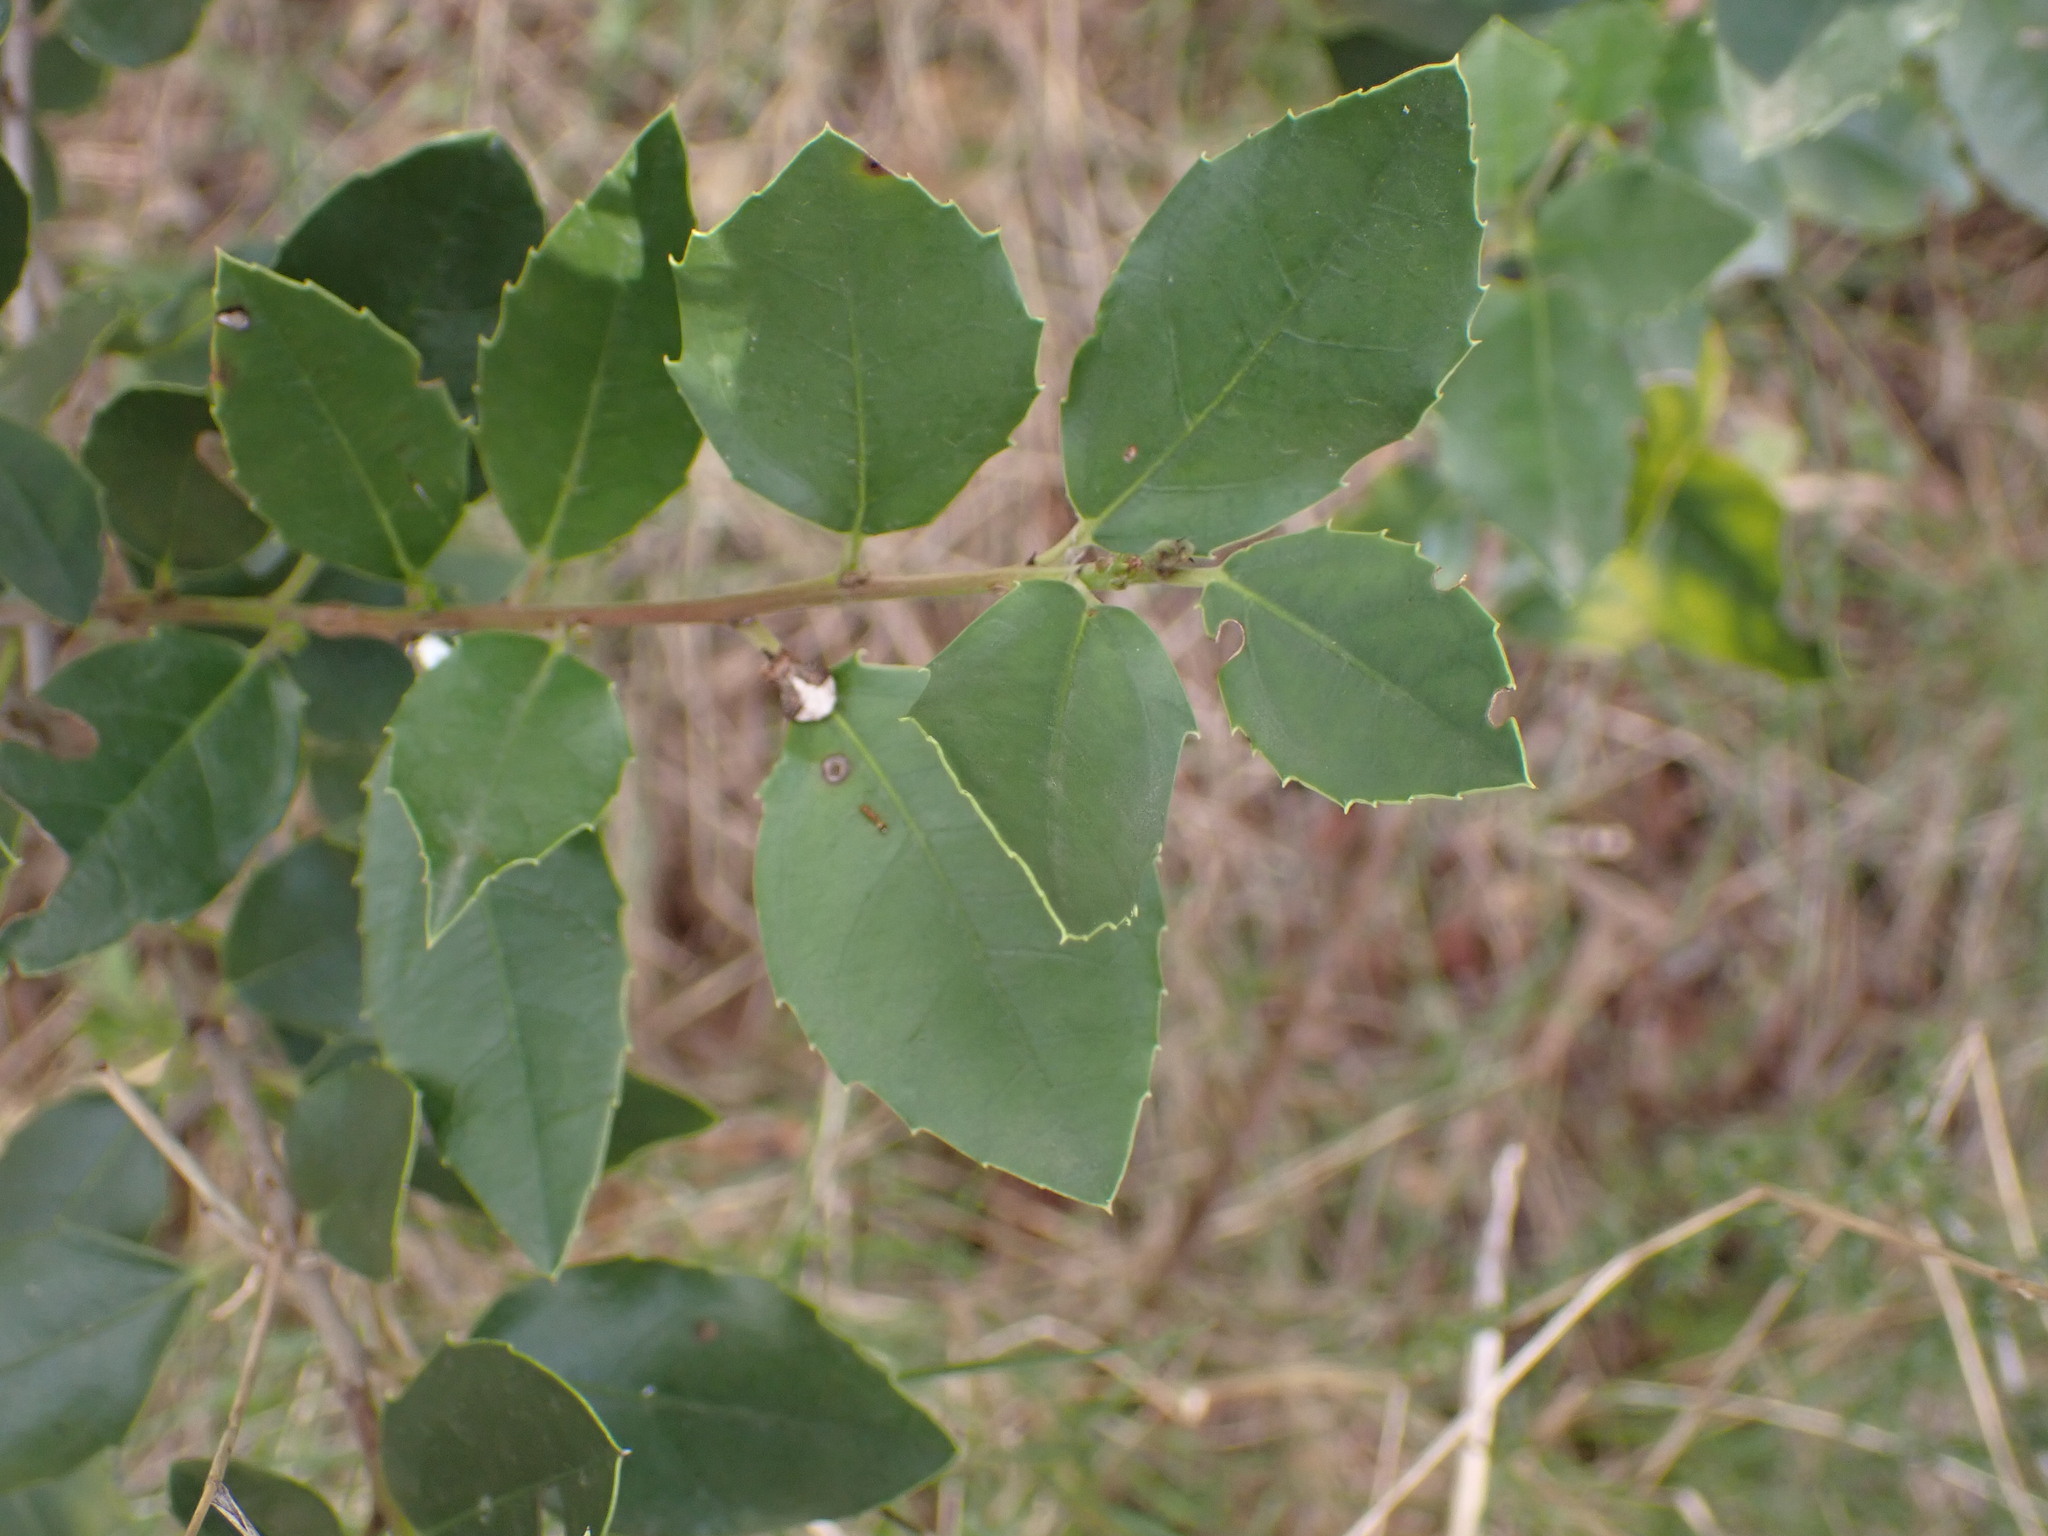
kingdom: Plantae
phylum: Tracheophyta
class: Magnoliopsida
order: Rosales
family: Rhamnaceae
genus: Rhamnus
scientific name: Rhamnus alaternus
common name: Mediterranean buckthorn
